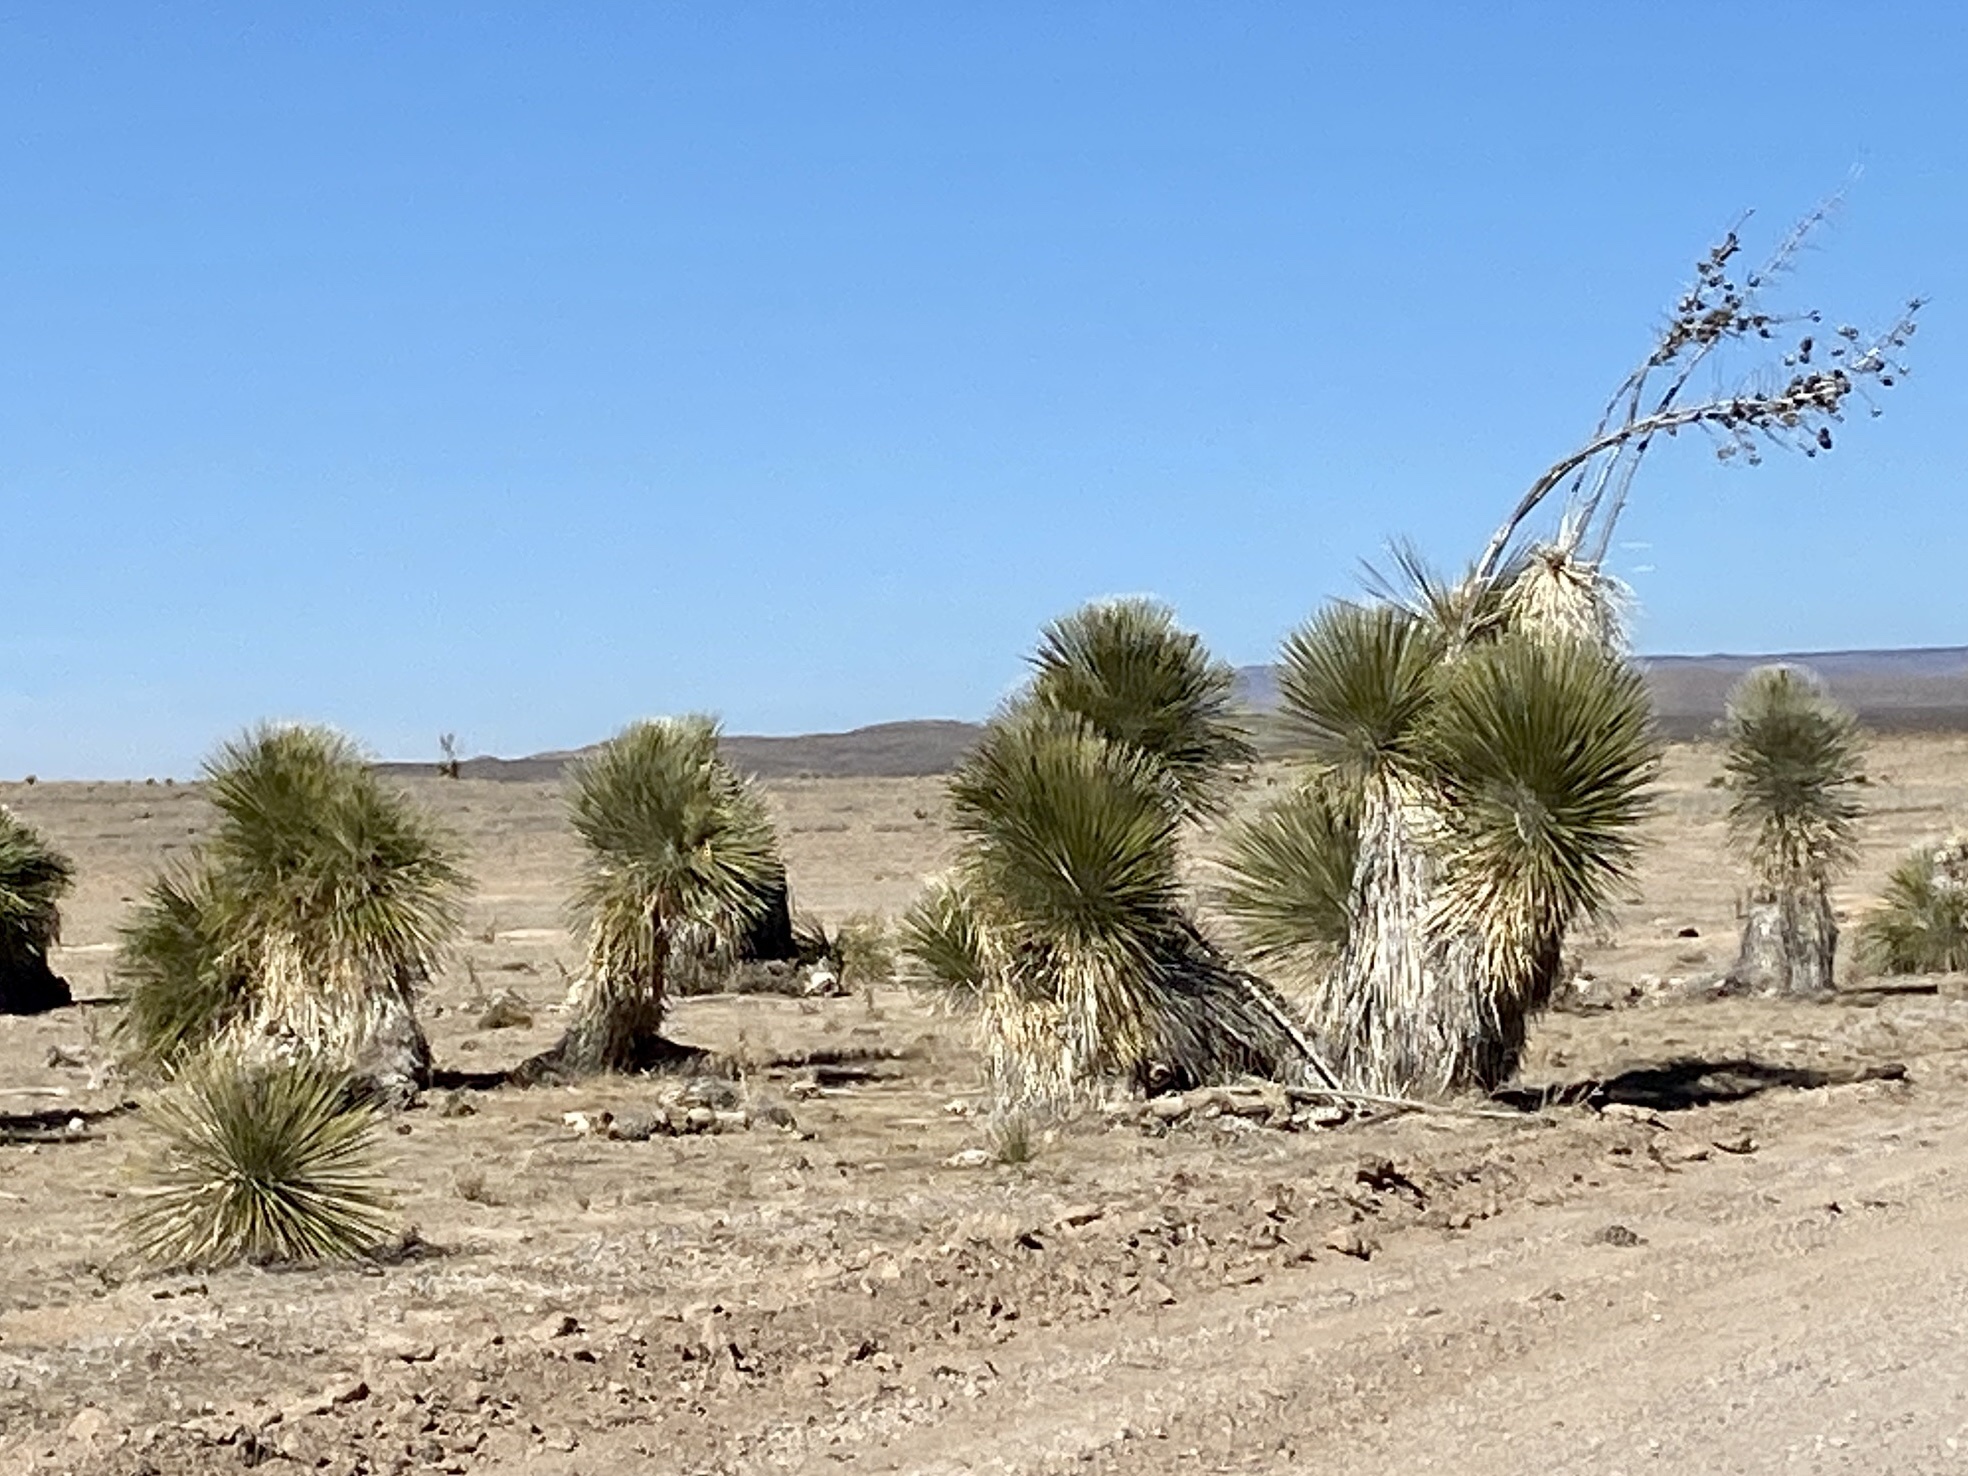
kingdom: Plantae
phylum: Tracheophyta
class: Liliopsida
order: Asparagales
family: Asparagaceae
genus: Yucca
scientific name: Yucca elata
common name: Palmella
